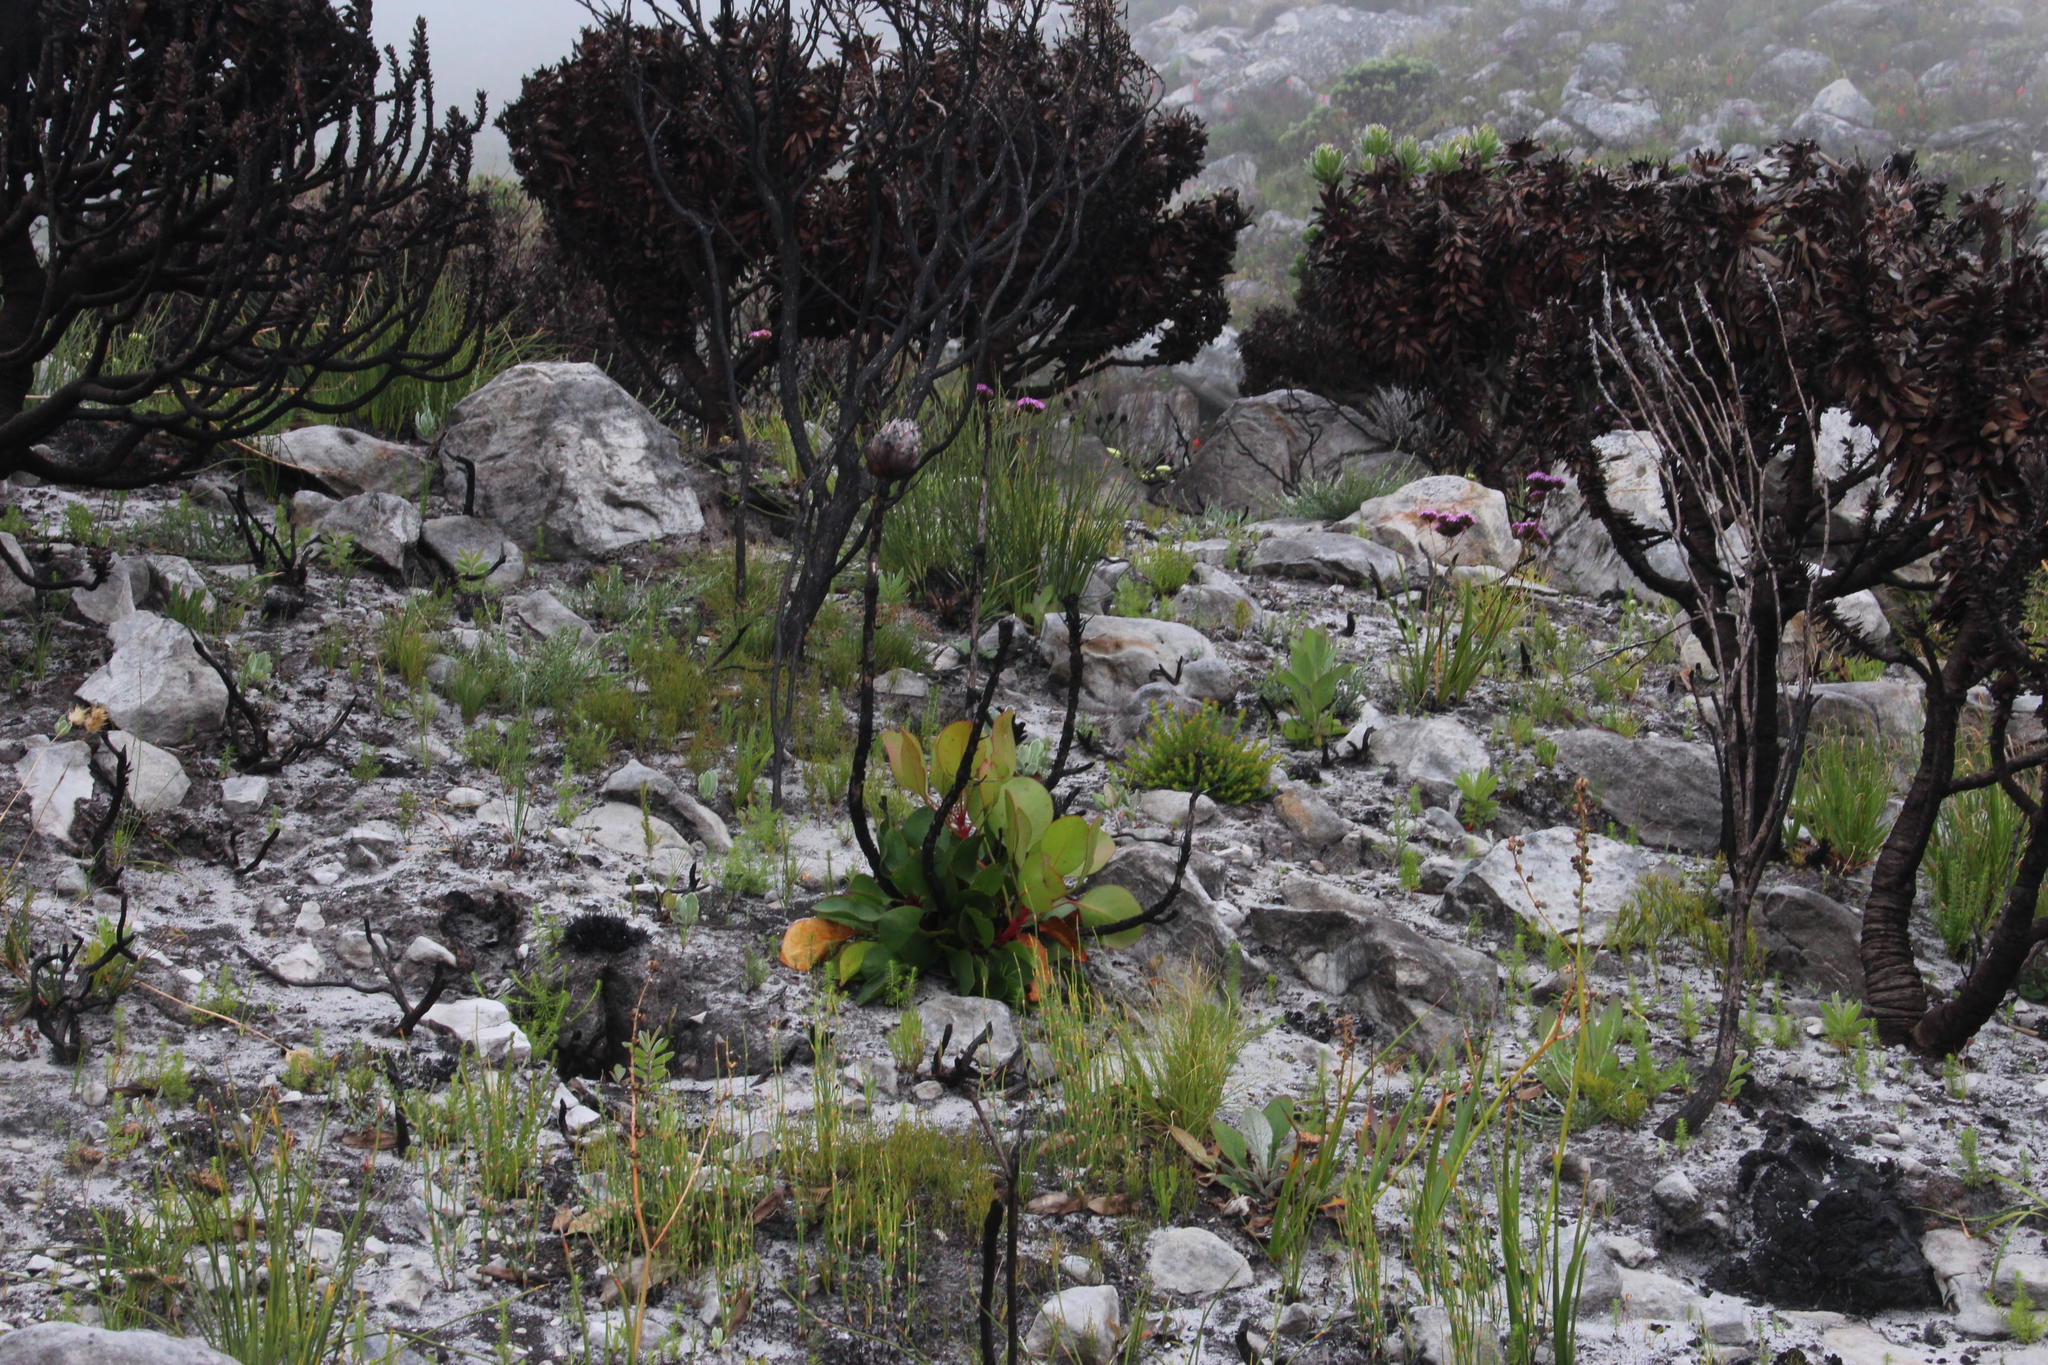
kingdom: Plantae
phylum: Tracheophyta
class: Magnoliopsida
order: Proteales
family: Proteaceae
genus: Protea
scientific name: Protea cynaroides
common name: King protea
